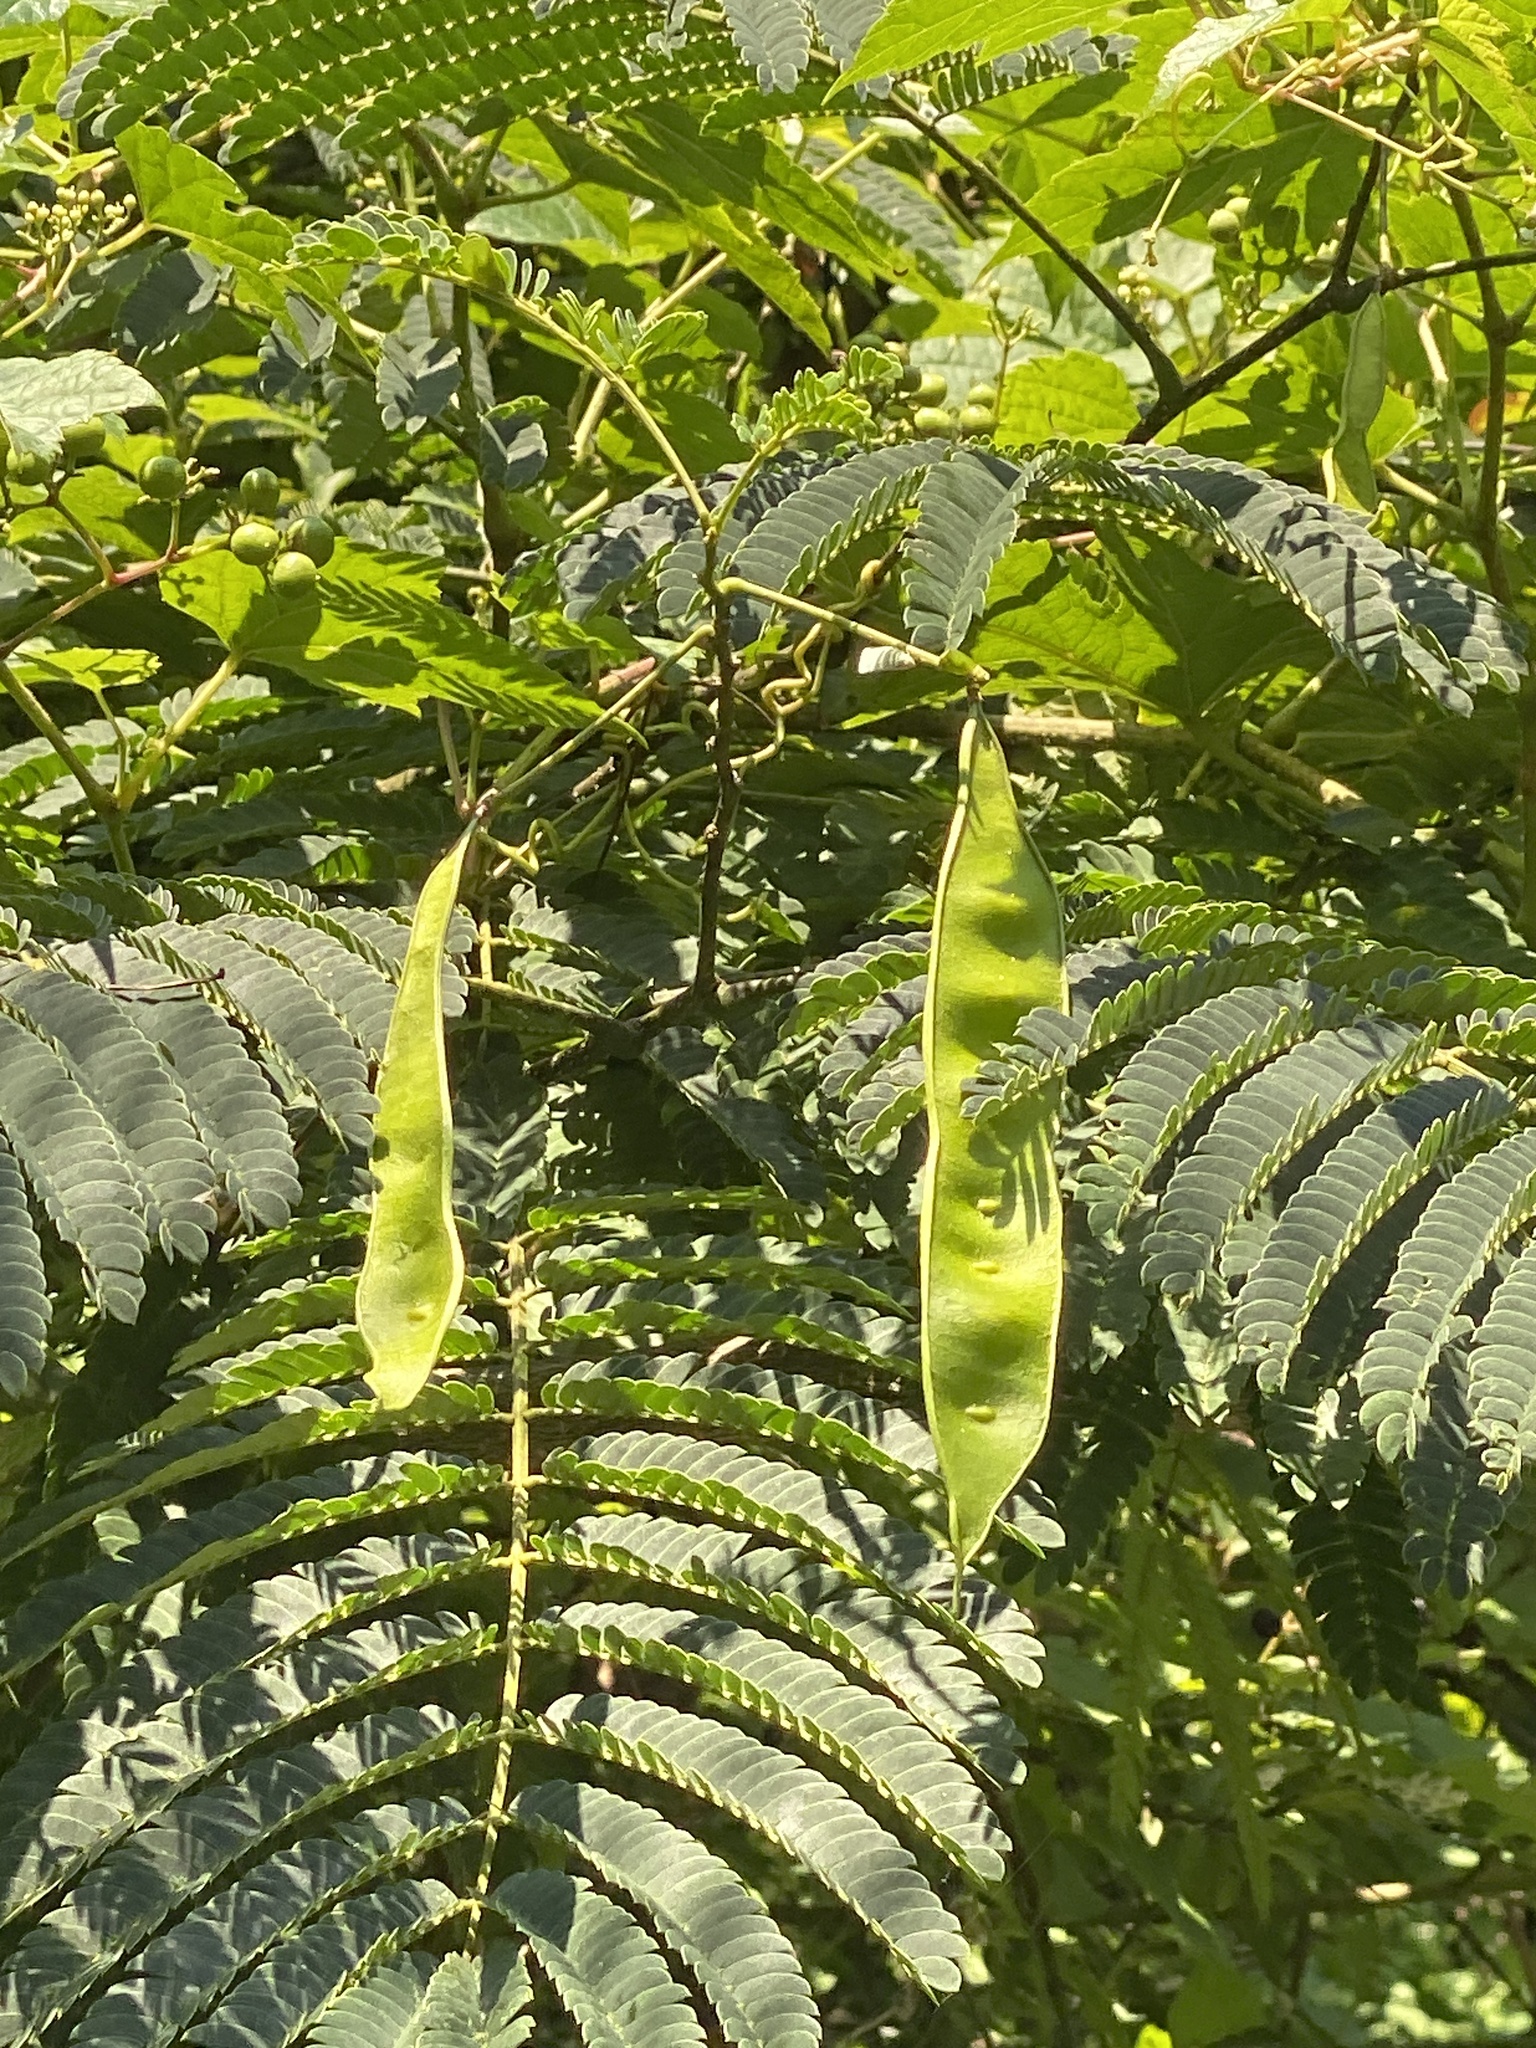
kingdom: Plantae
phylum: Tracheophyta
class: Magnoliopsida
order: Fabales
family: Fabaceae
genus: Albizia
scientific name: Albizia julibrissin
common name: Silktree
